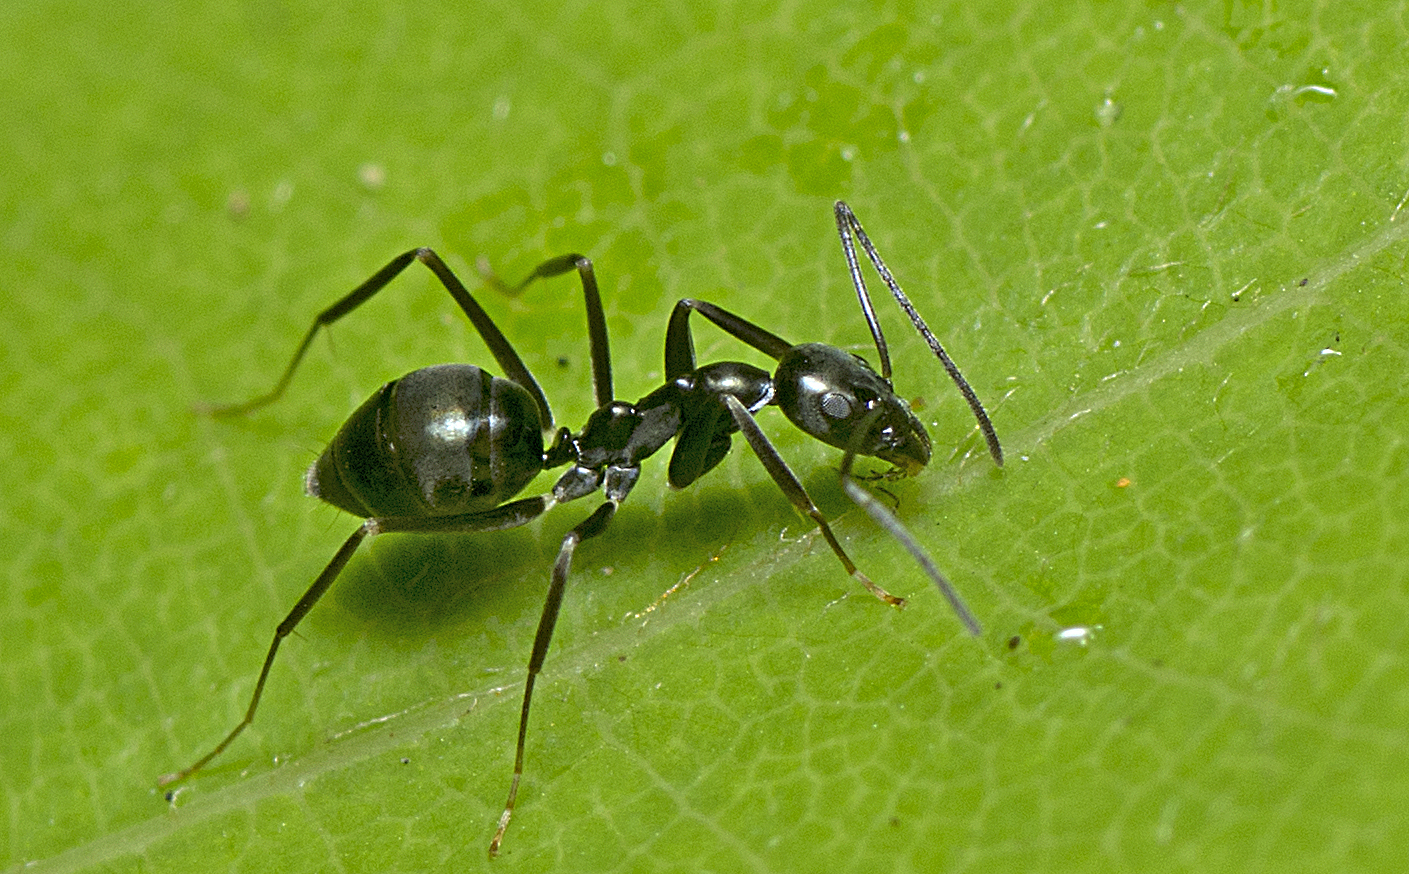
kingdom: Animalia
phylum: Arthropoda
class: Insecta
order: Hymenoptera
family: Formicidae
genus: Leptomyrmex
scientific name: Leptomyrmex burwelli
